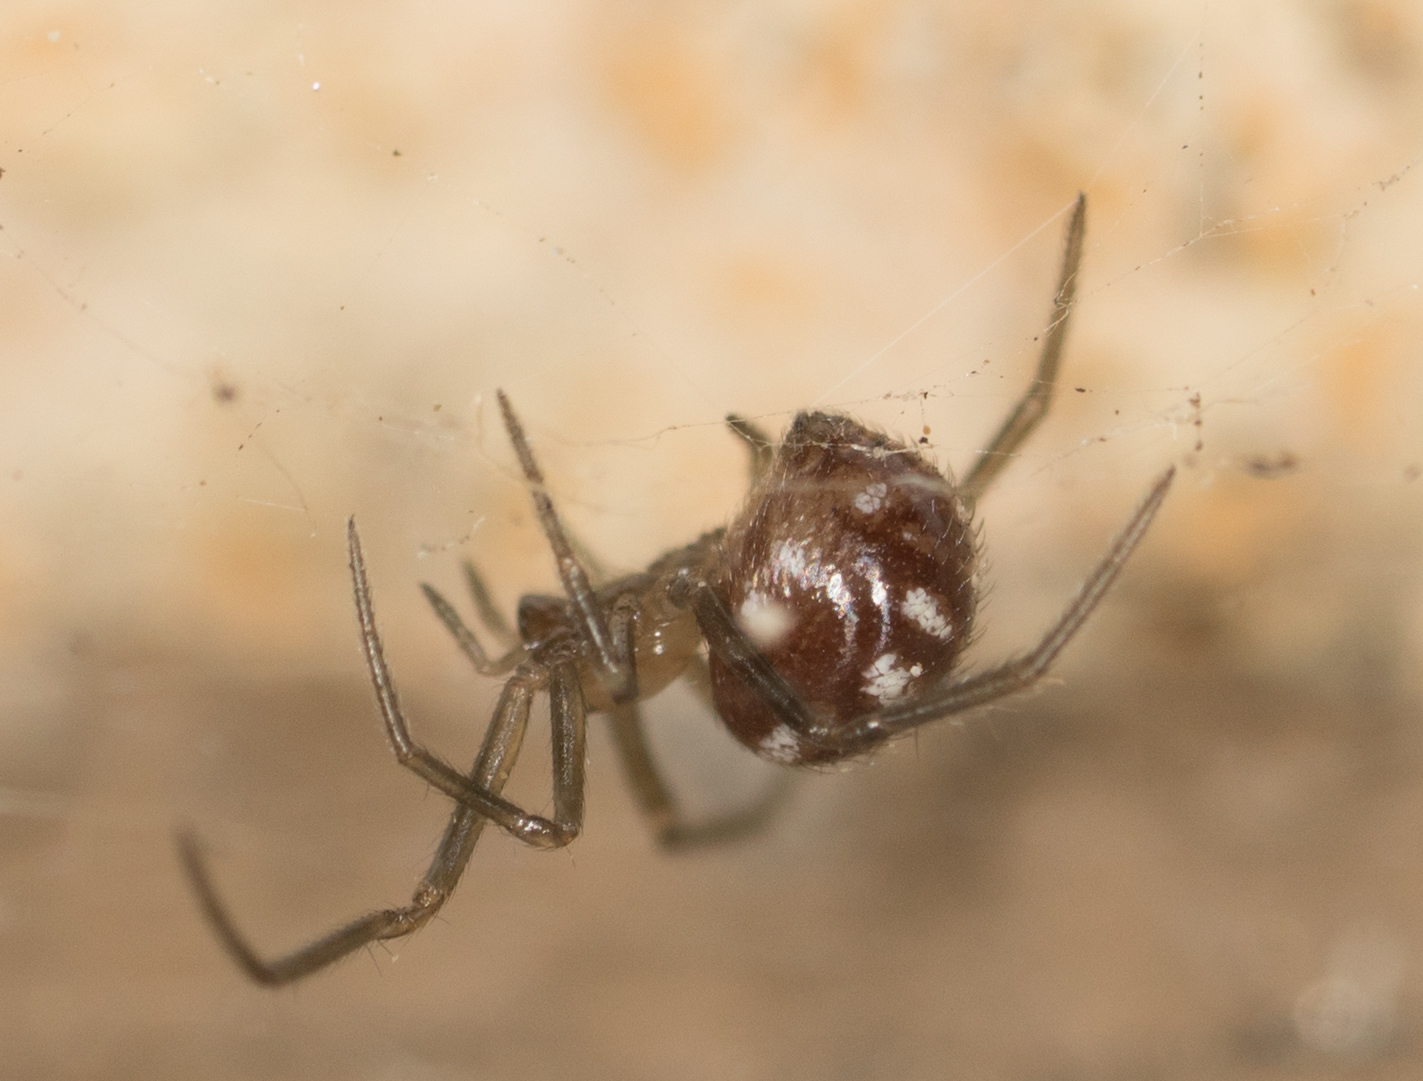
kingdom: Animalia
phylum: Arthropoda
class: Arachnida
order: Araneae
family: Theridiidae
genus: Steatoda
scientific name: Steatoda grossa
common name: False black widow
